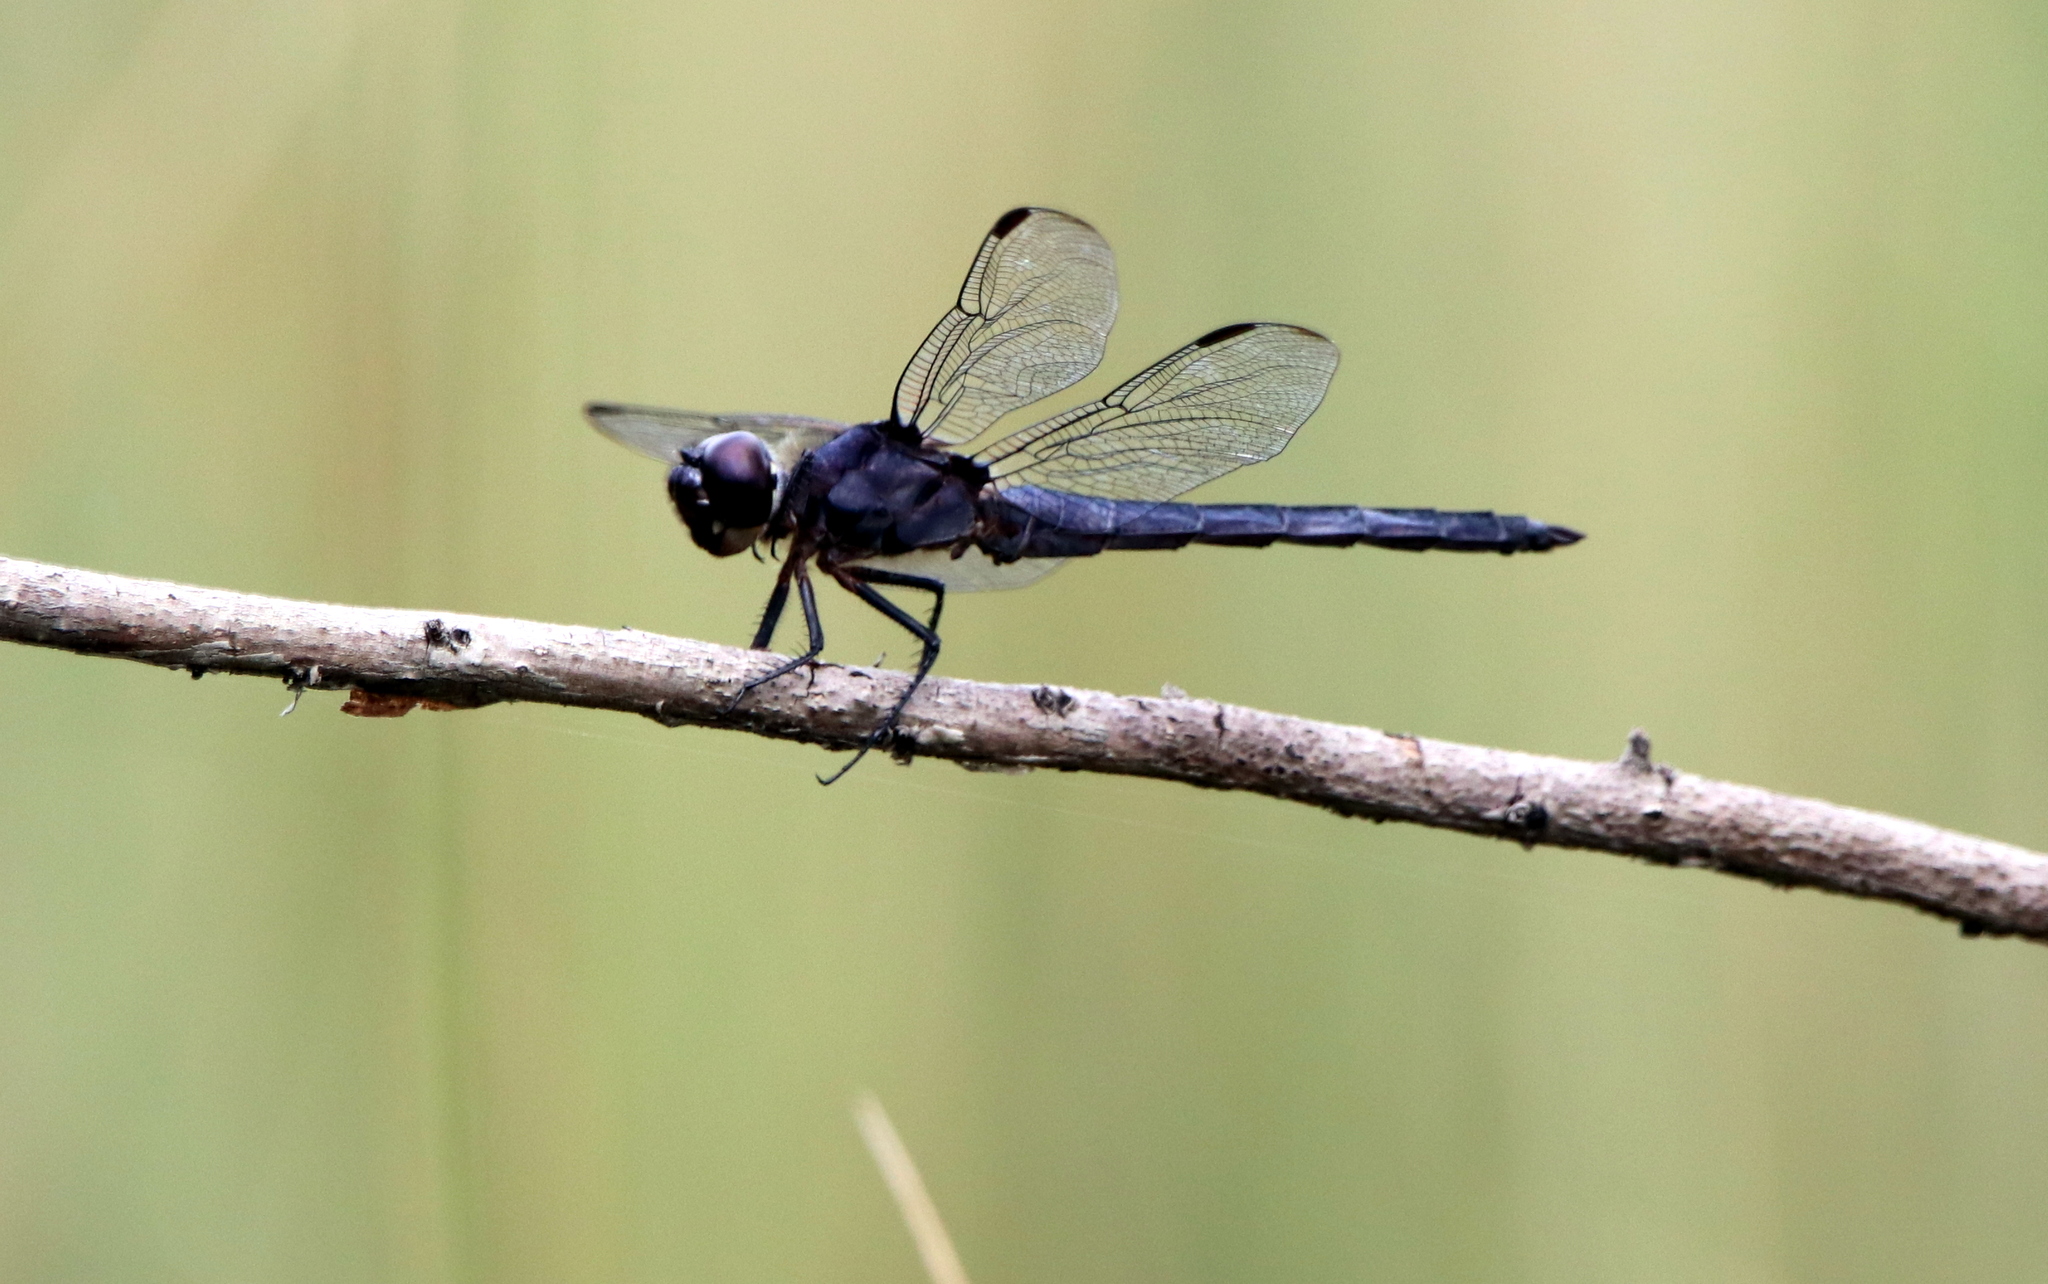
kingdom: Animalia
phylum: Arthropoda
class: Insecta
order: Odonata
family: Libellulidae
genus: Libellula
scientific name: Libellula incesta
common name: Slaty skimmer
